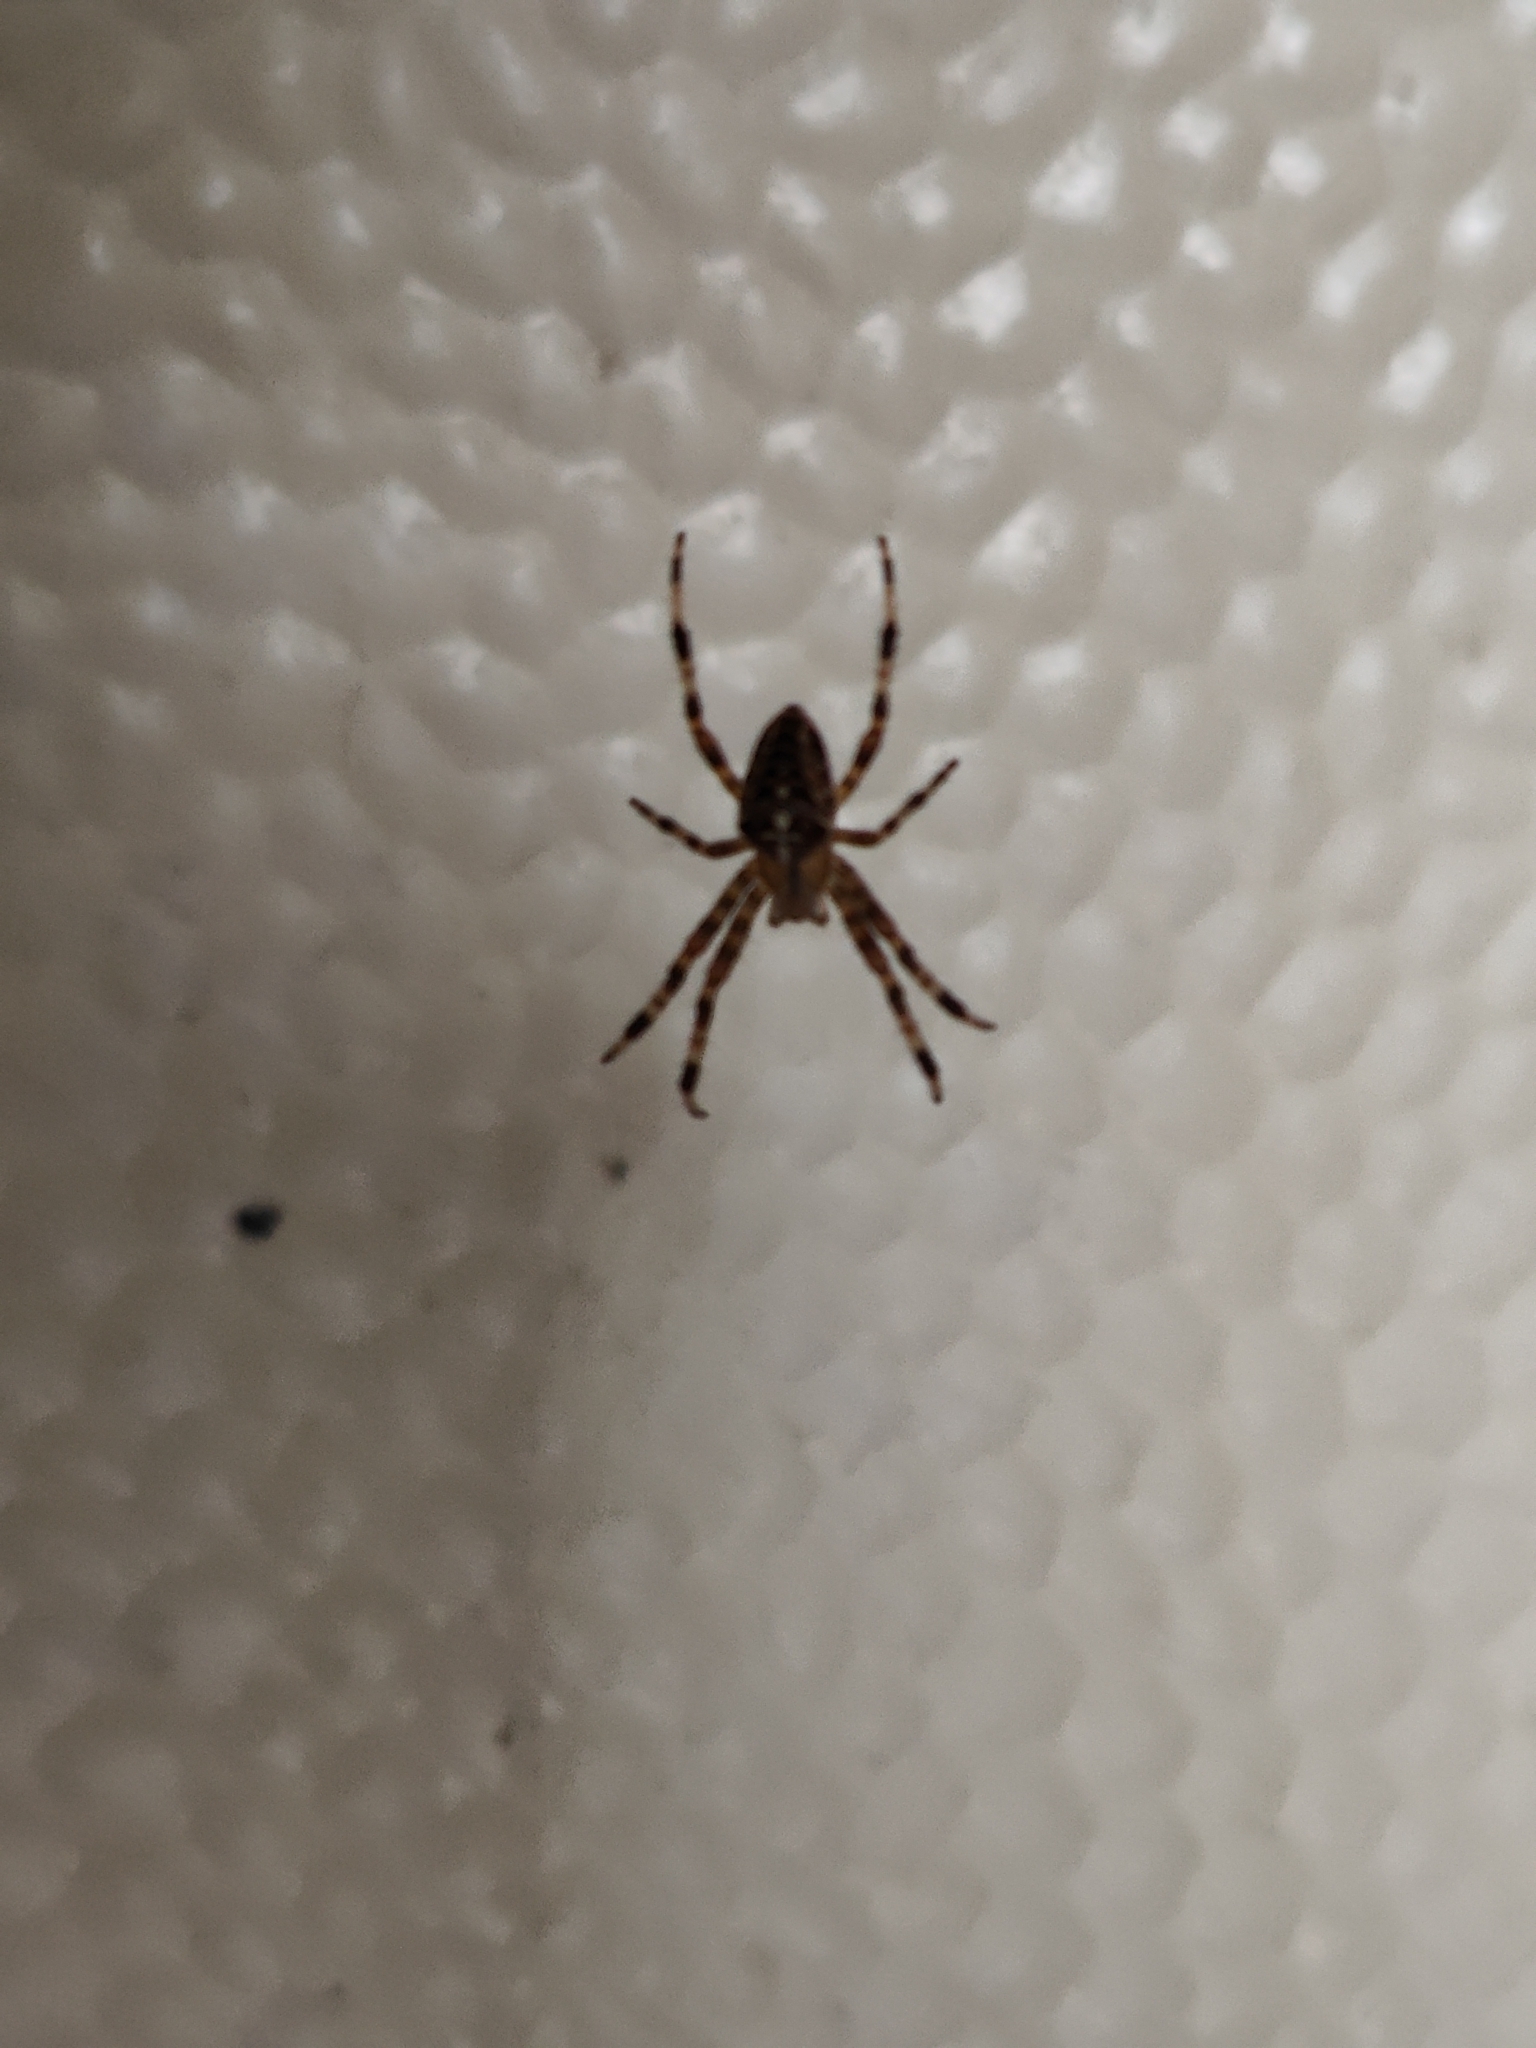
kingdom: Animalia
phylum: Arthropoda
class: Arachnida
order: Araneae
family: Araneidae
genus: Araneus
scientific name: Araneus diadematus
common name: Cross orbweaver
